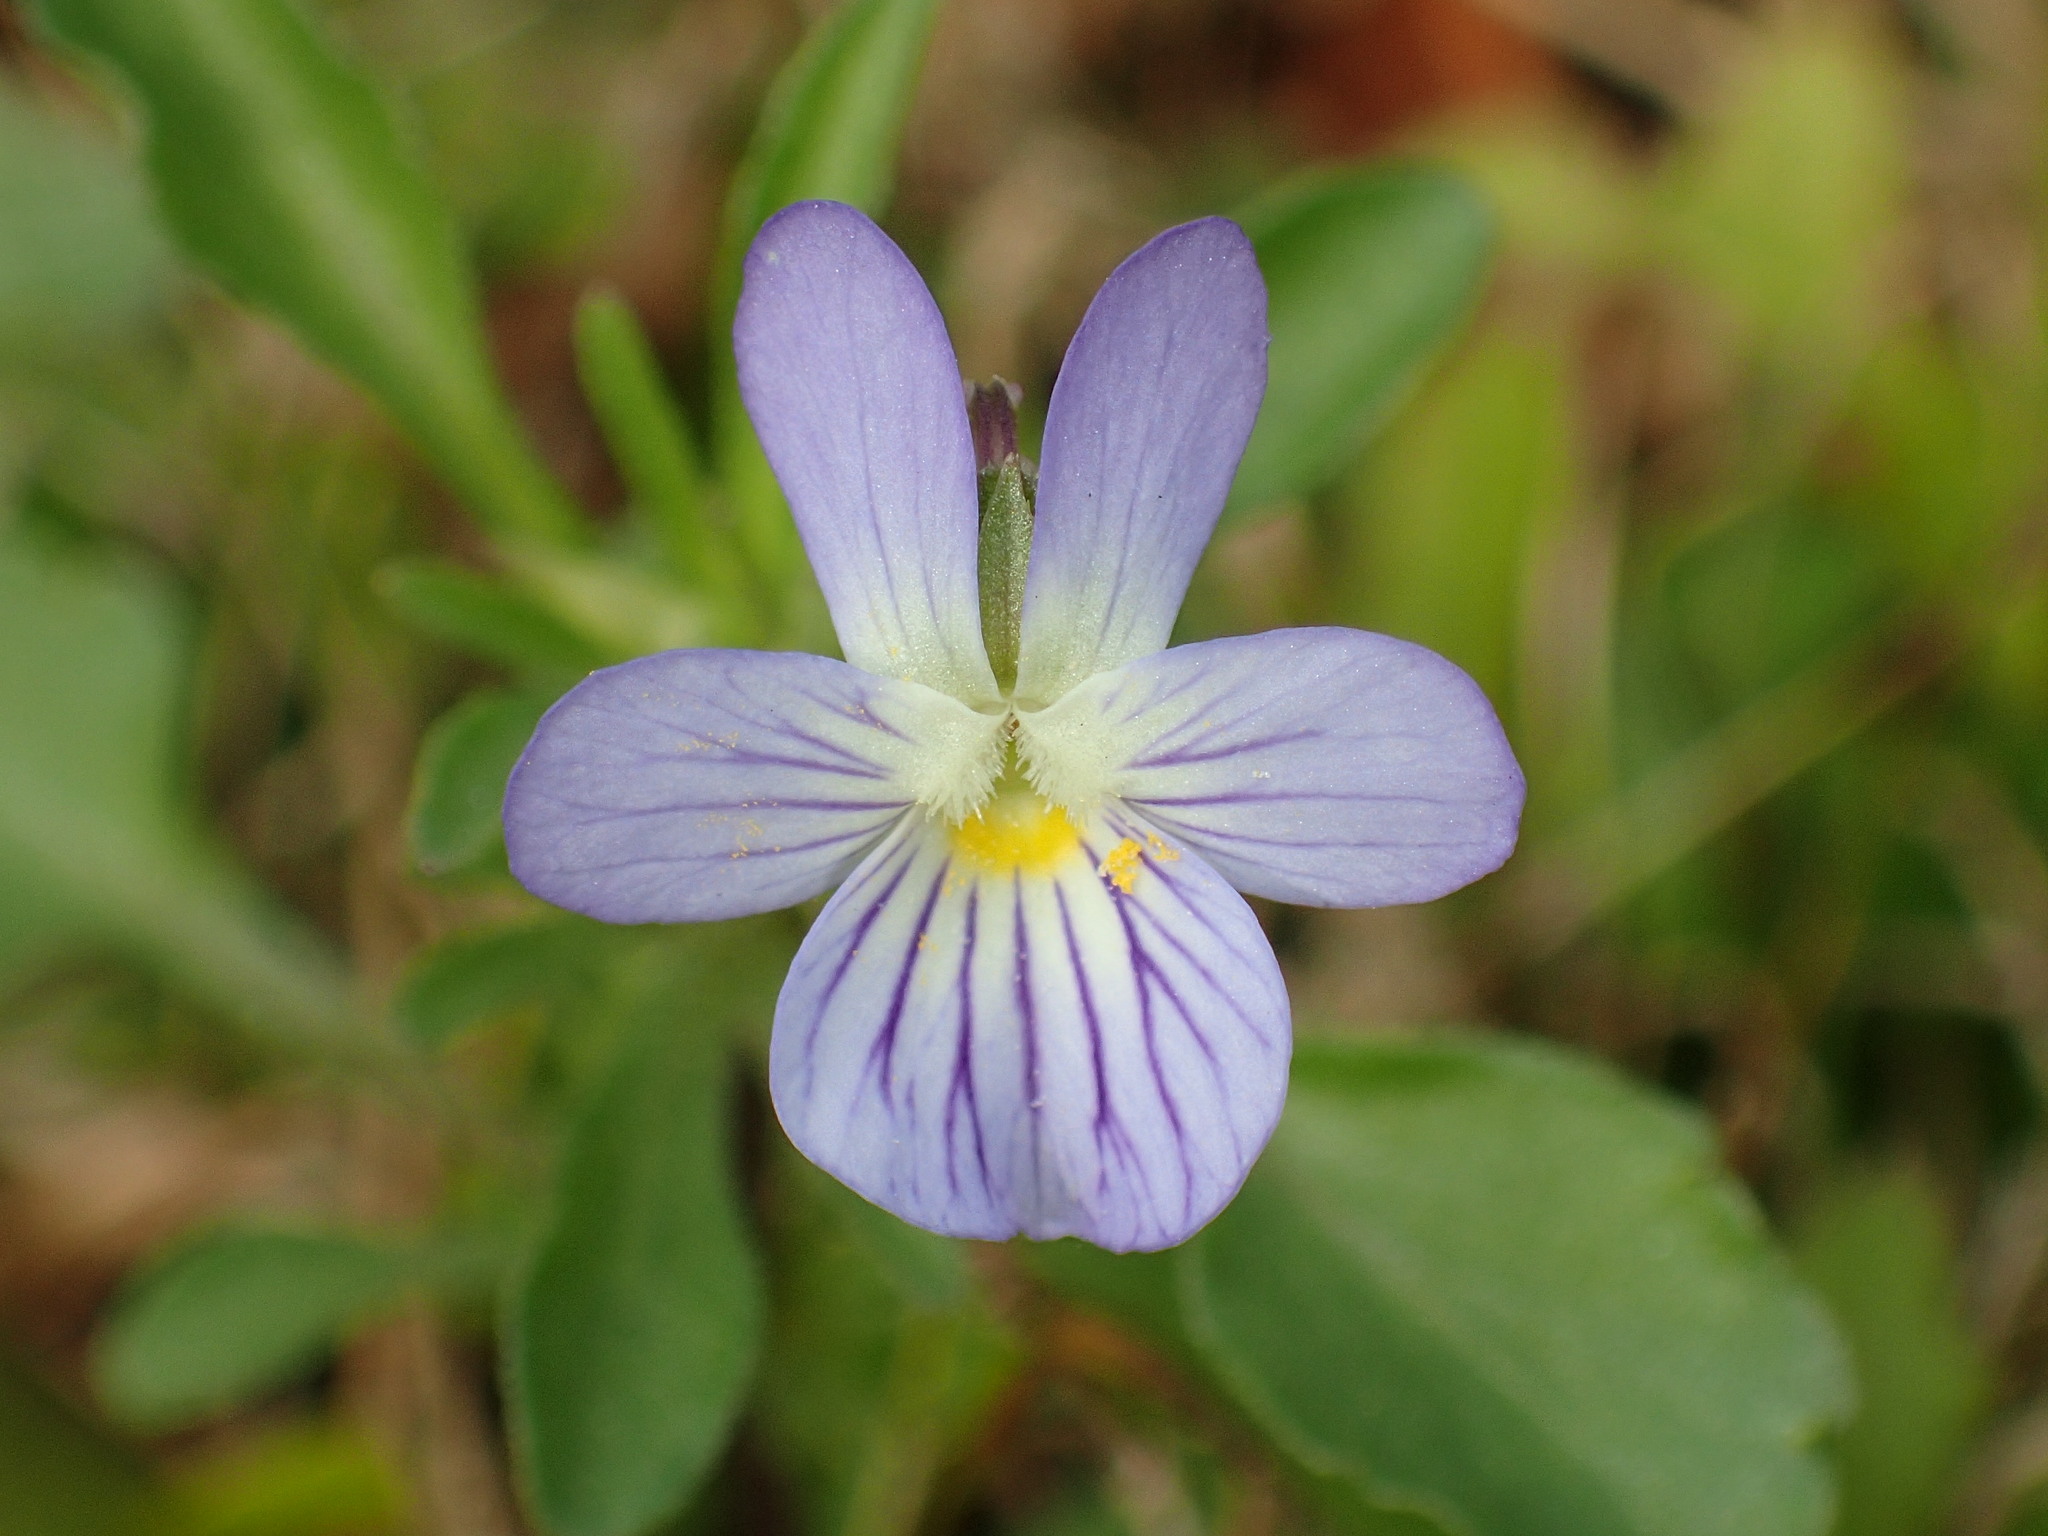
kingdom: Plantae
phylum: Tracheophyta
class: Magnoliopsida
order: Malpighiales
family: Violaceae
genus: Viola
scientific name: Viola rafinesquei
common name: American field pansy
